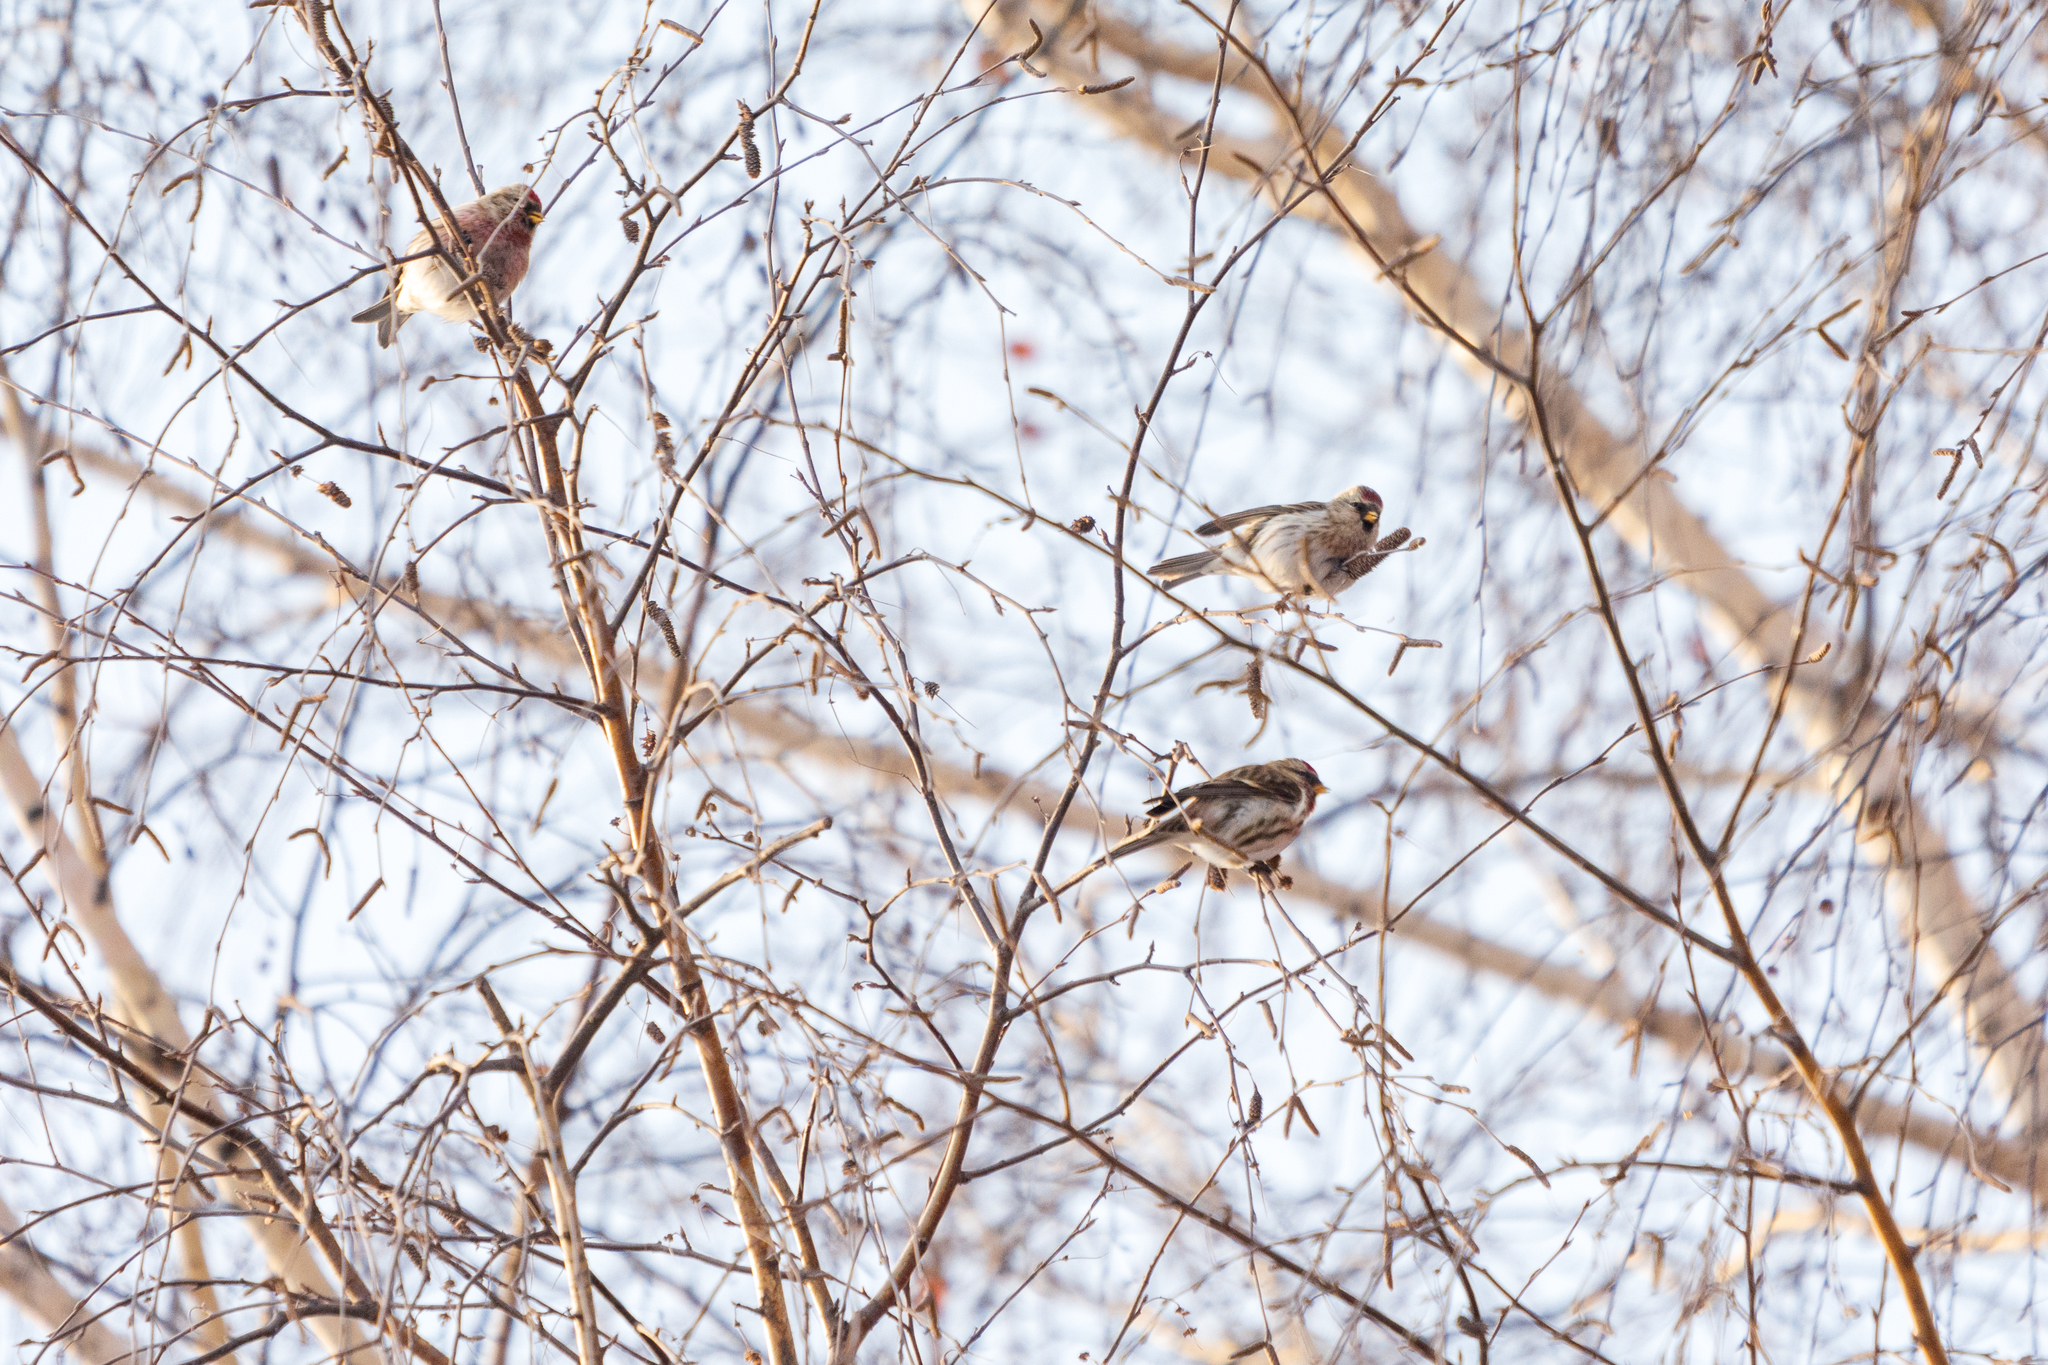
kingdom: Animalia
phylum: Chordata
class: Aves
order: Passeriformes
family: Fringillidae
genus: Acanthis
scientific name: Acanthis flammea
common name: Common redpoll
